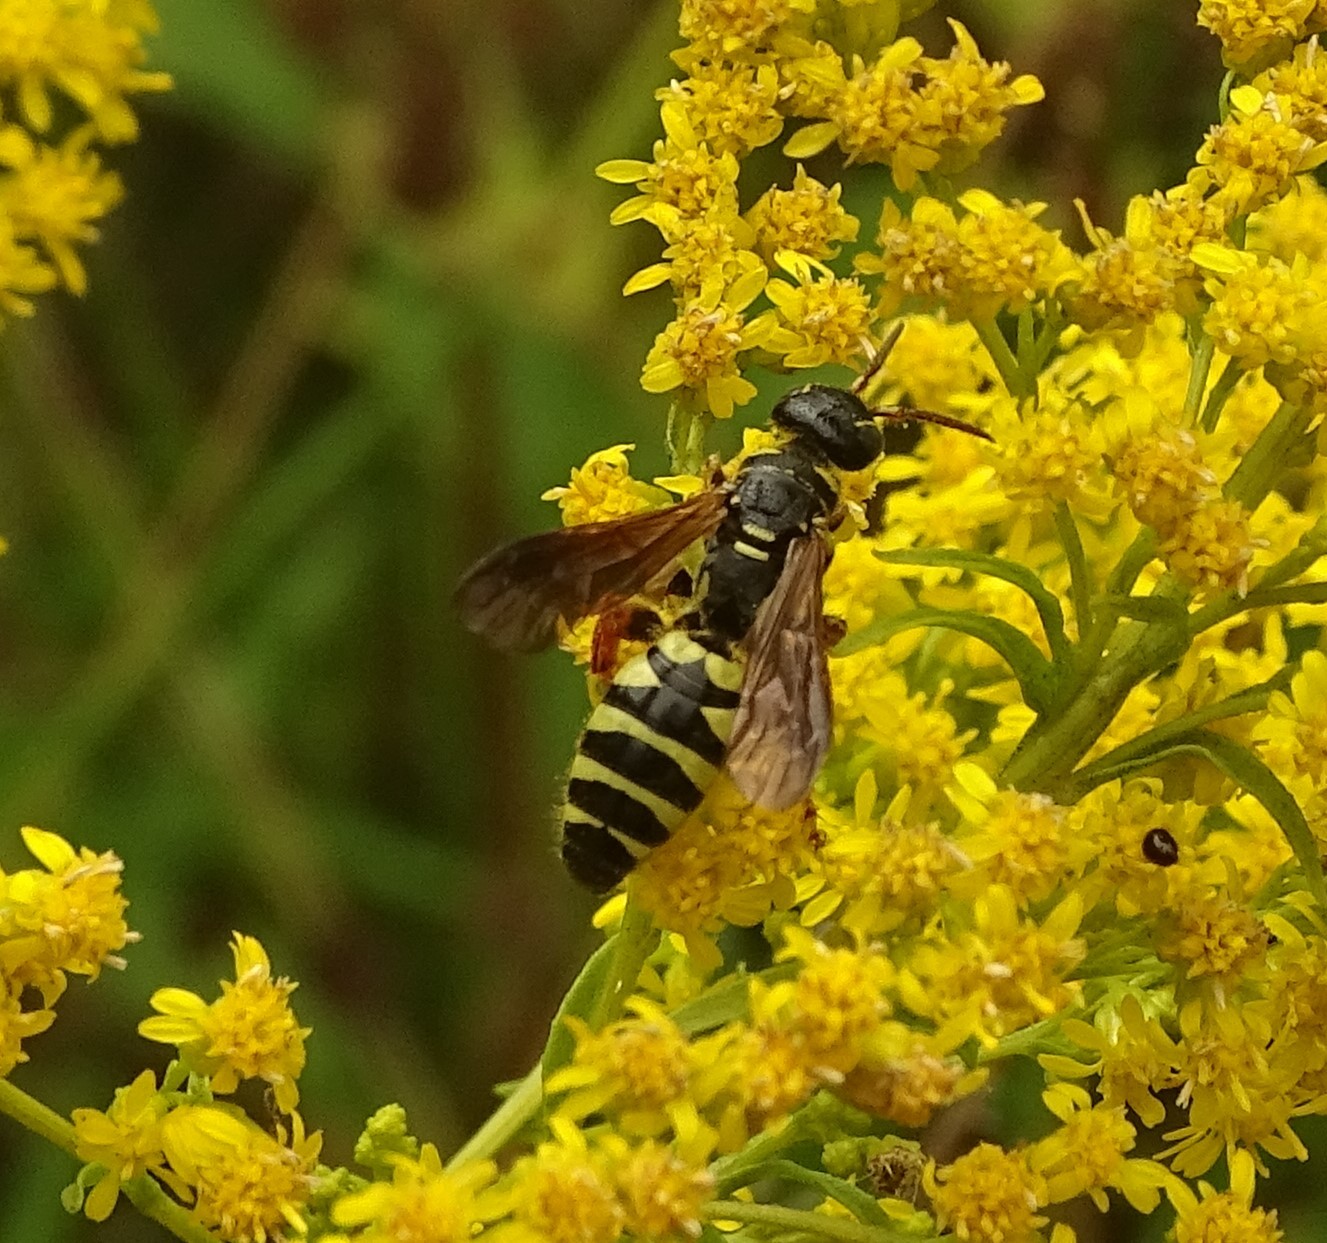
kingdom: Animalia
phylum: Arthropoda
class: Insecta
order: Hymenoptera
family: Tiphiidae
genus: Myzinum
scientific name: Myzinum quinquecinctum
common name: Five-banded thynnid wasp
